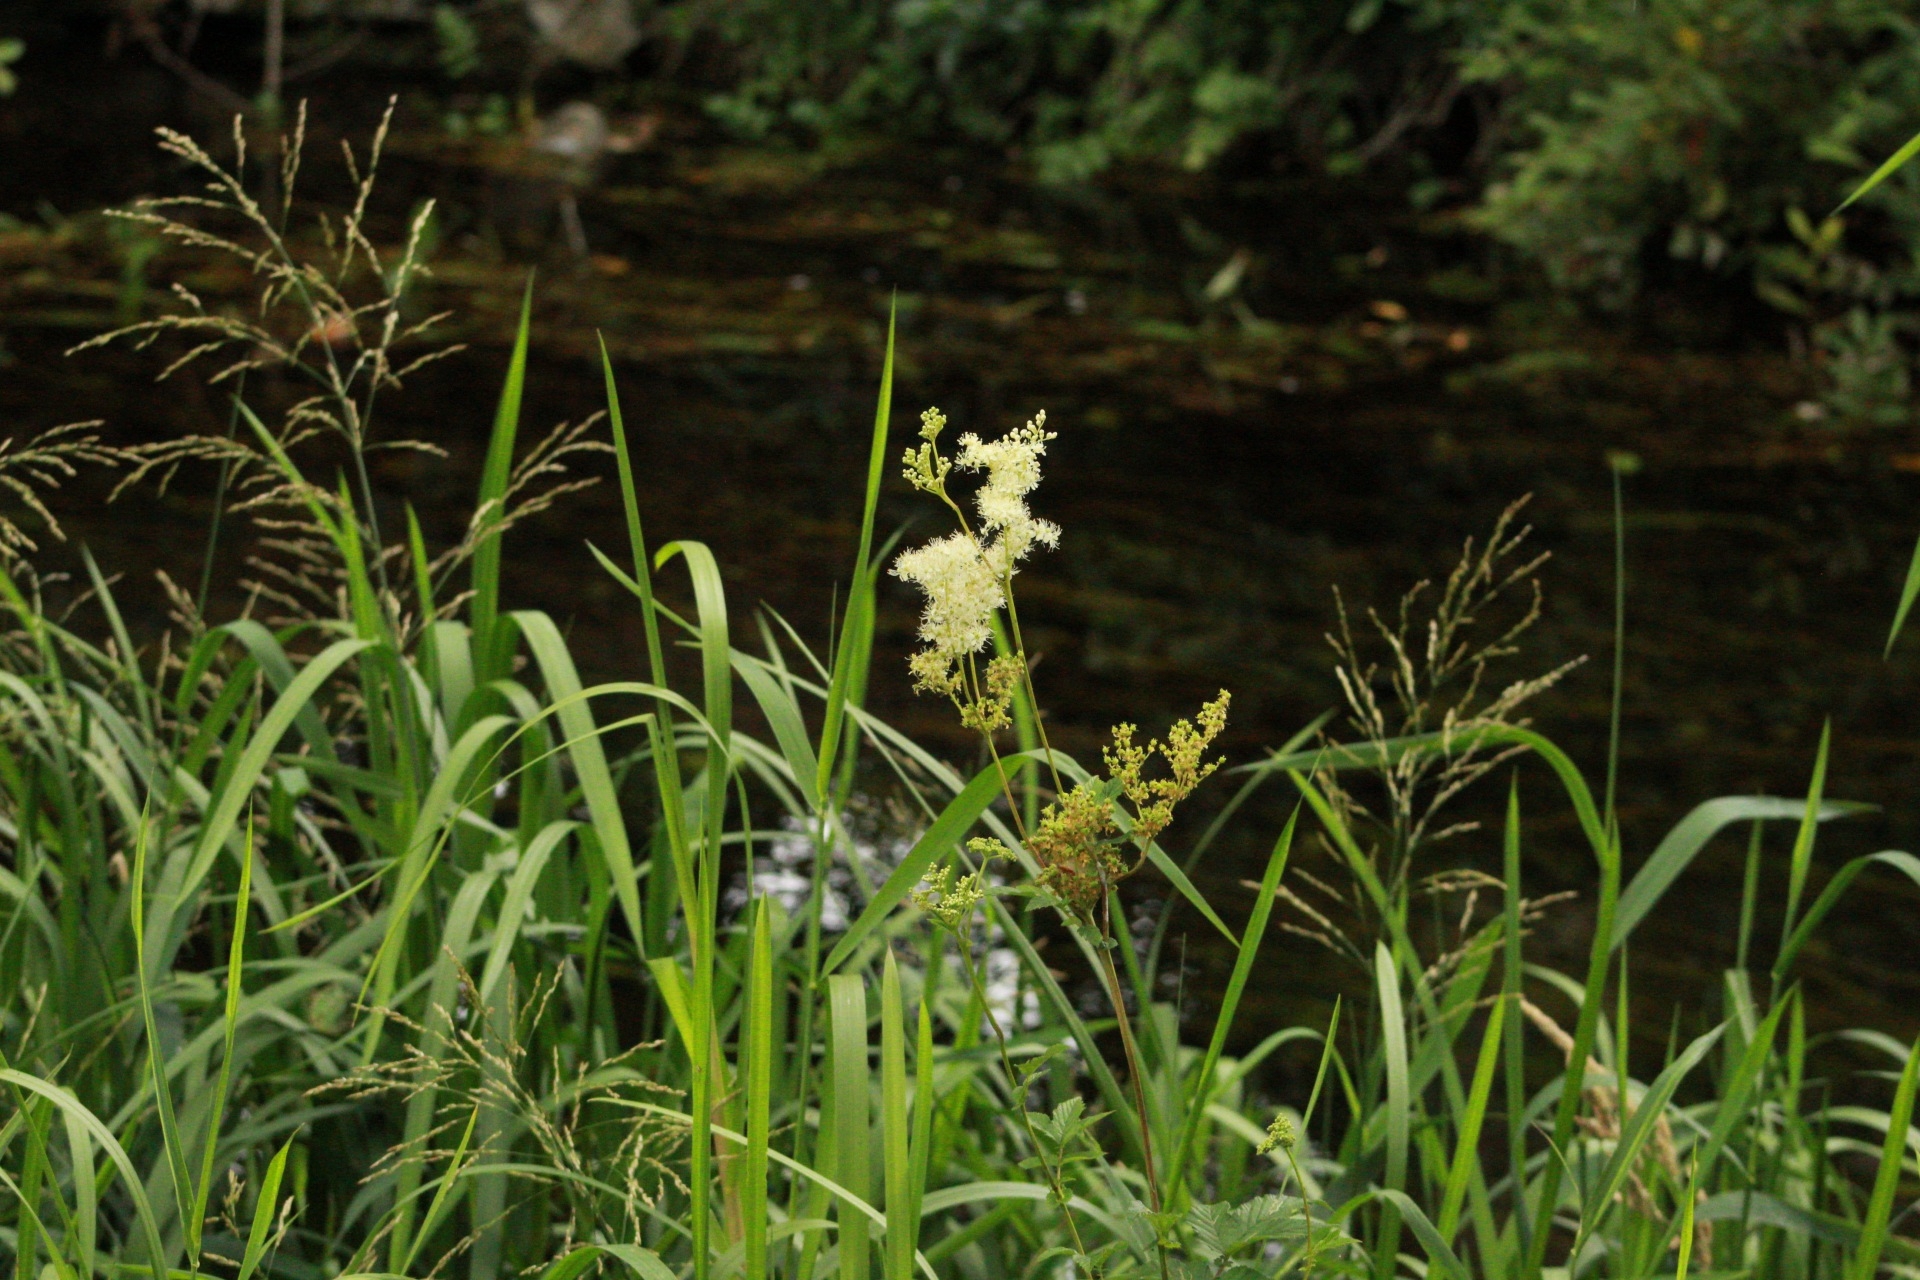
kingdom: Plantae
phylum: Tracheophyta
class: Magnoliopsida
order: Rosales
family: Rosaceae
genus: Filipendula
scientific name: Filipendula ulmaria
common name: Meadowsweet
